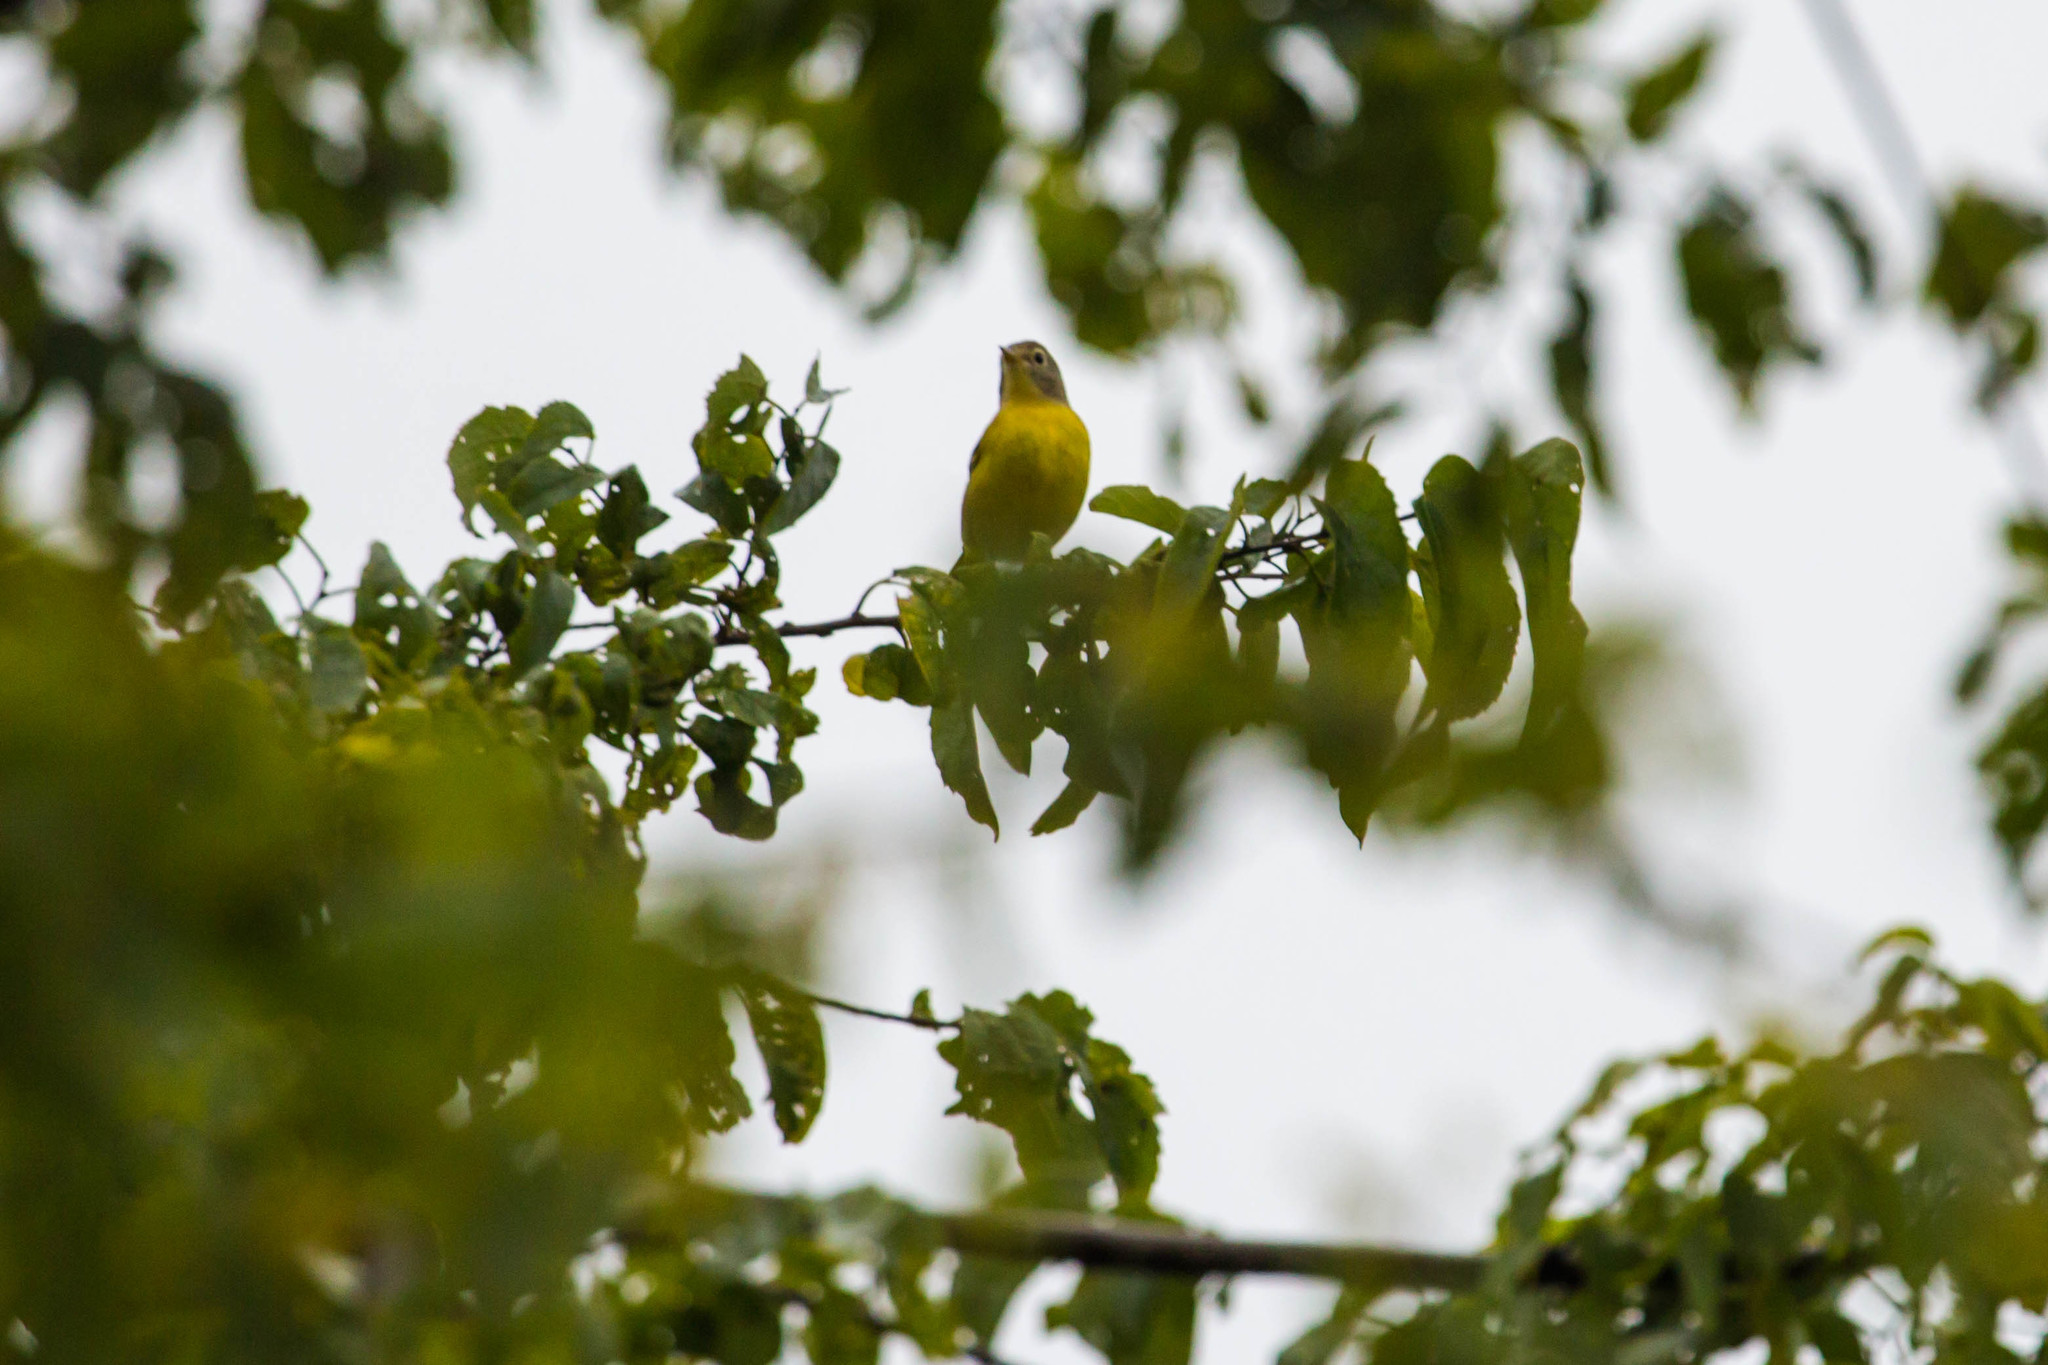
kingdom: Animalia
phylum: Chordata
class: Aves
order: Passeriformes
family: Parulidae
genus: Leiothlypis
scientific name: Leiothlypis ruficapilla
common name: Nashville warbler
